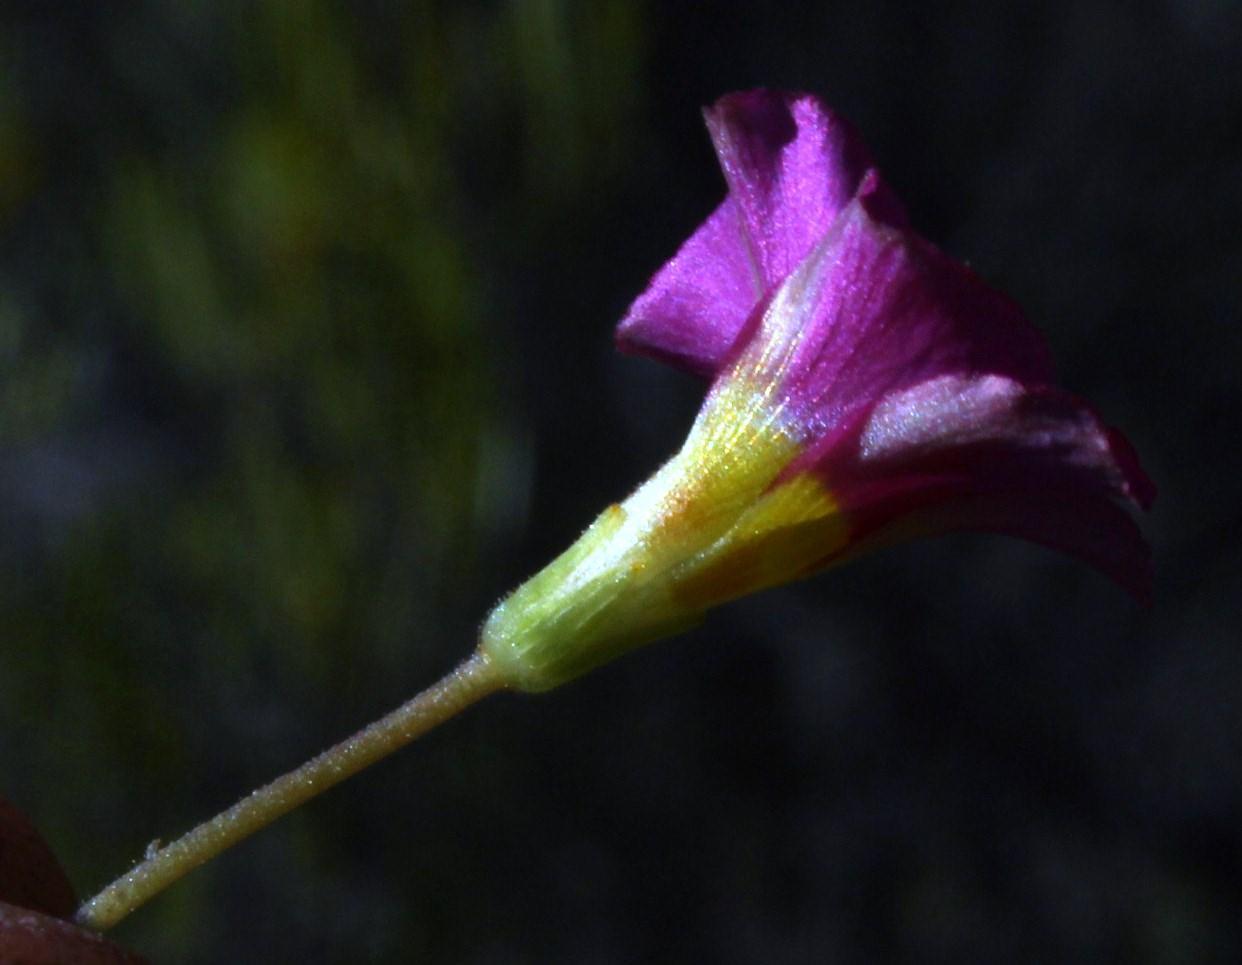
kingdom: Plantae
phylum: Tracheophyta
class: Magnoliopsida
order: Oxalidales
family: Oxalidaceae
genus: Oxalis
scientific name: Oxalis fergusoniae
